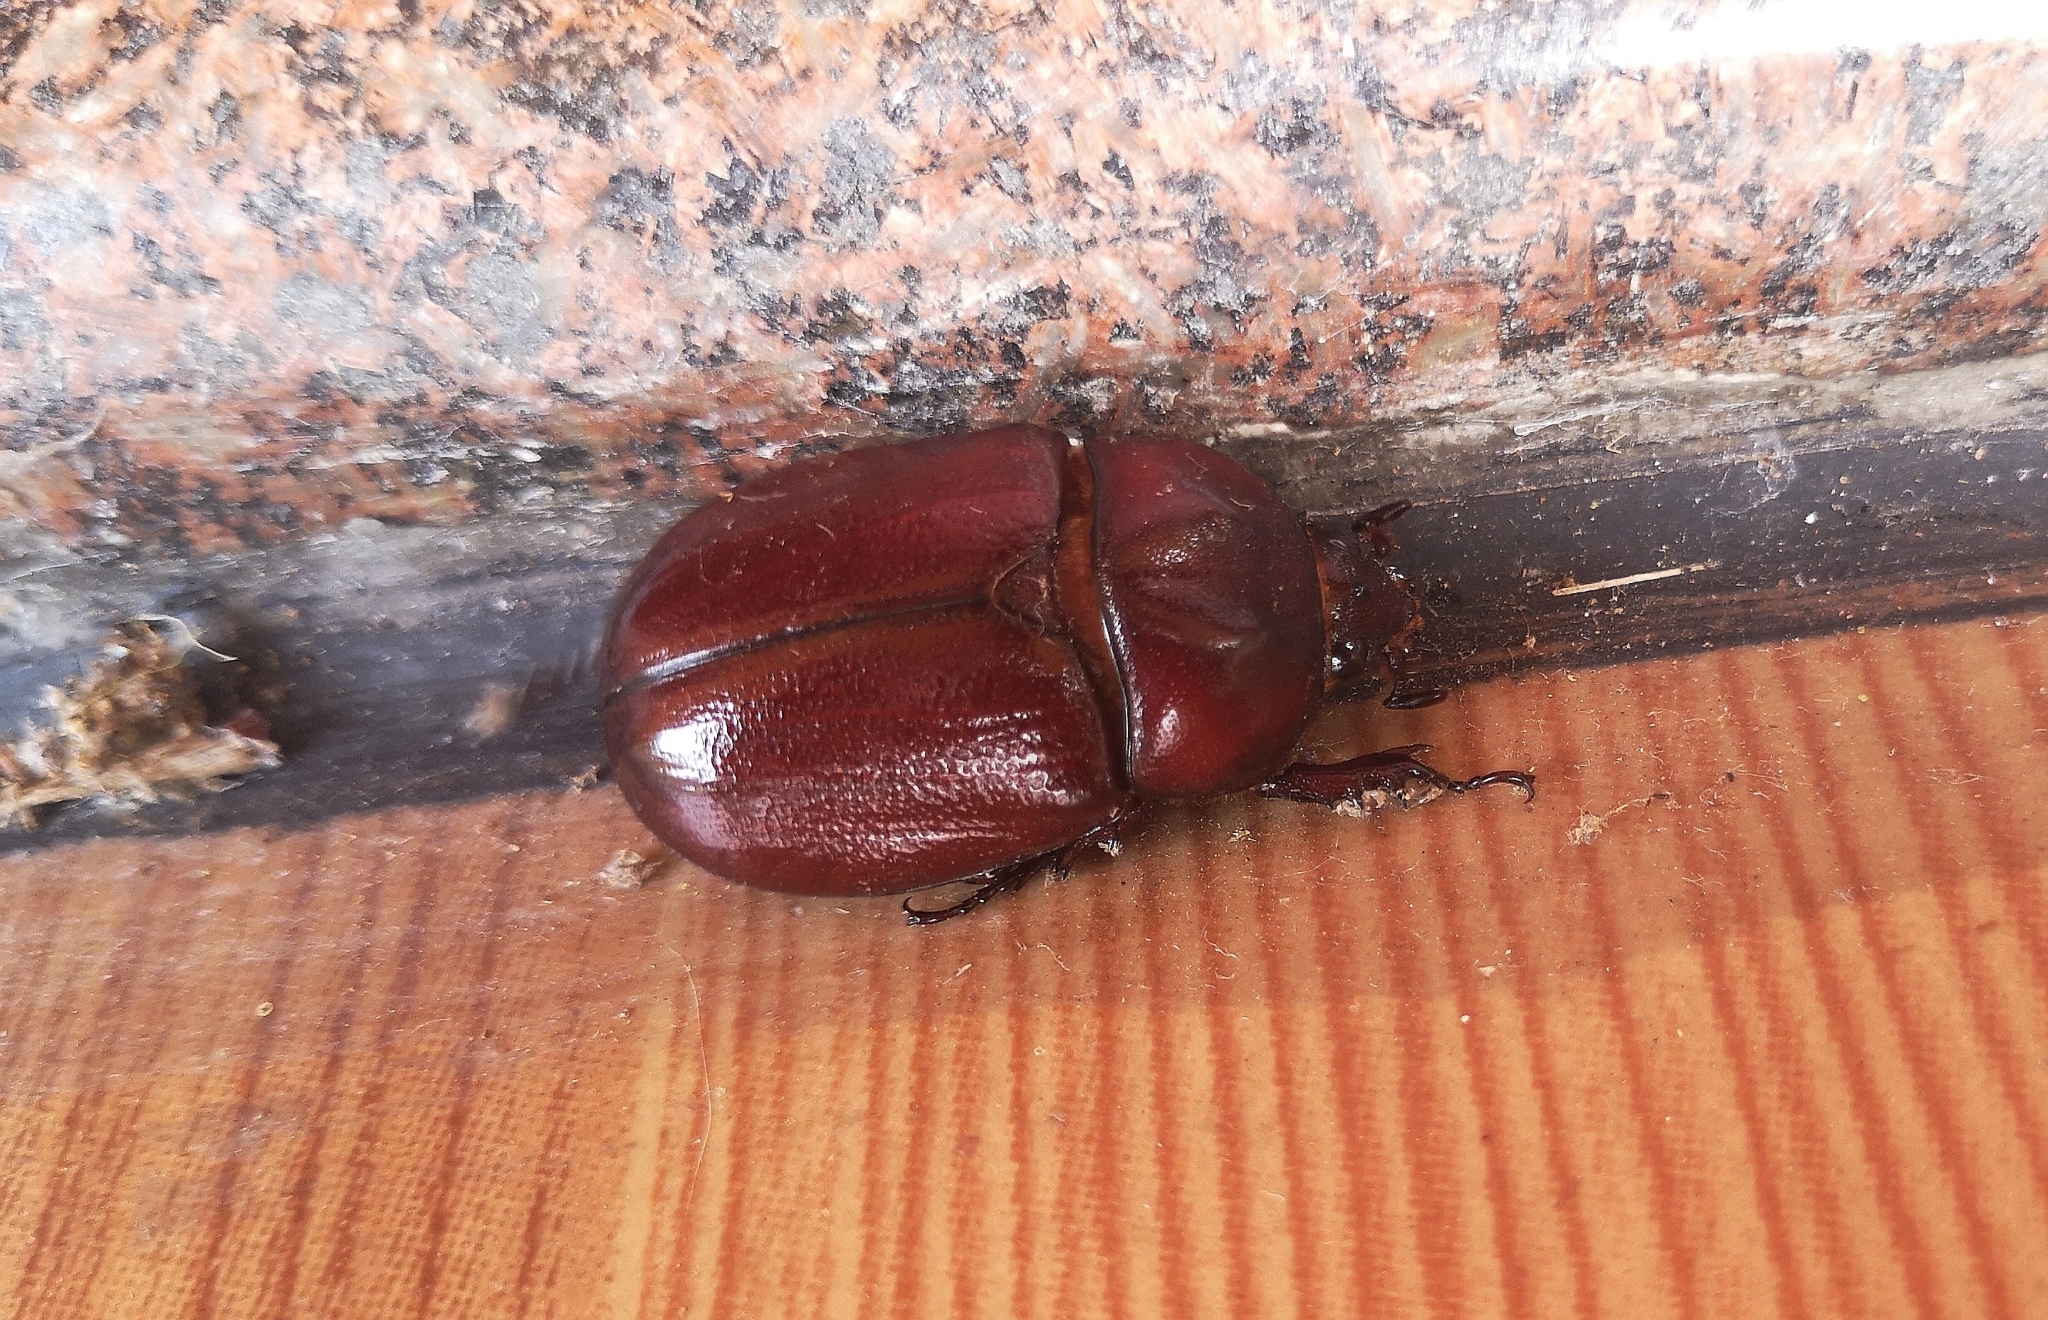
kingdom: Animalia
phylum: Arthropoda
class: Insecta
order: Coleoptera
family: Scarabaeidae
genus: Blabephorus
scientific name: Blabephorus pinguis
